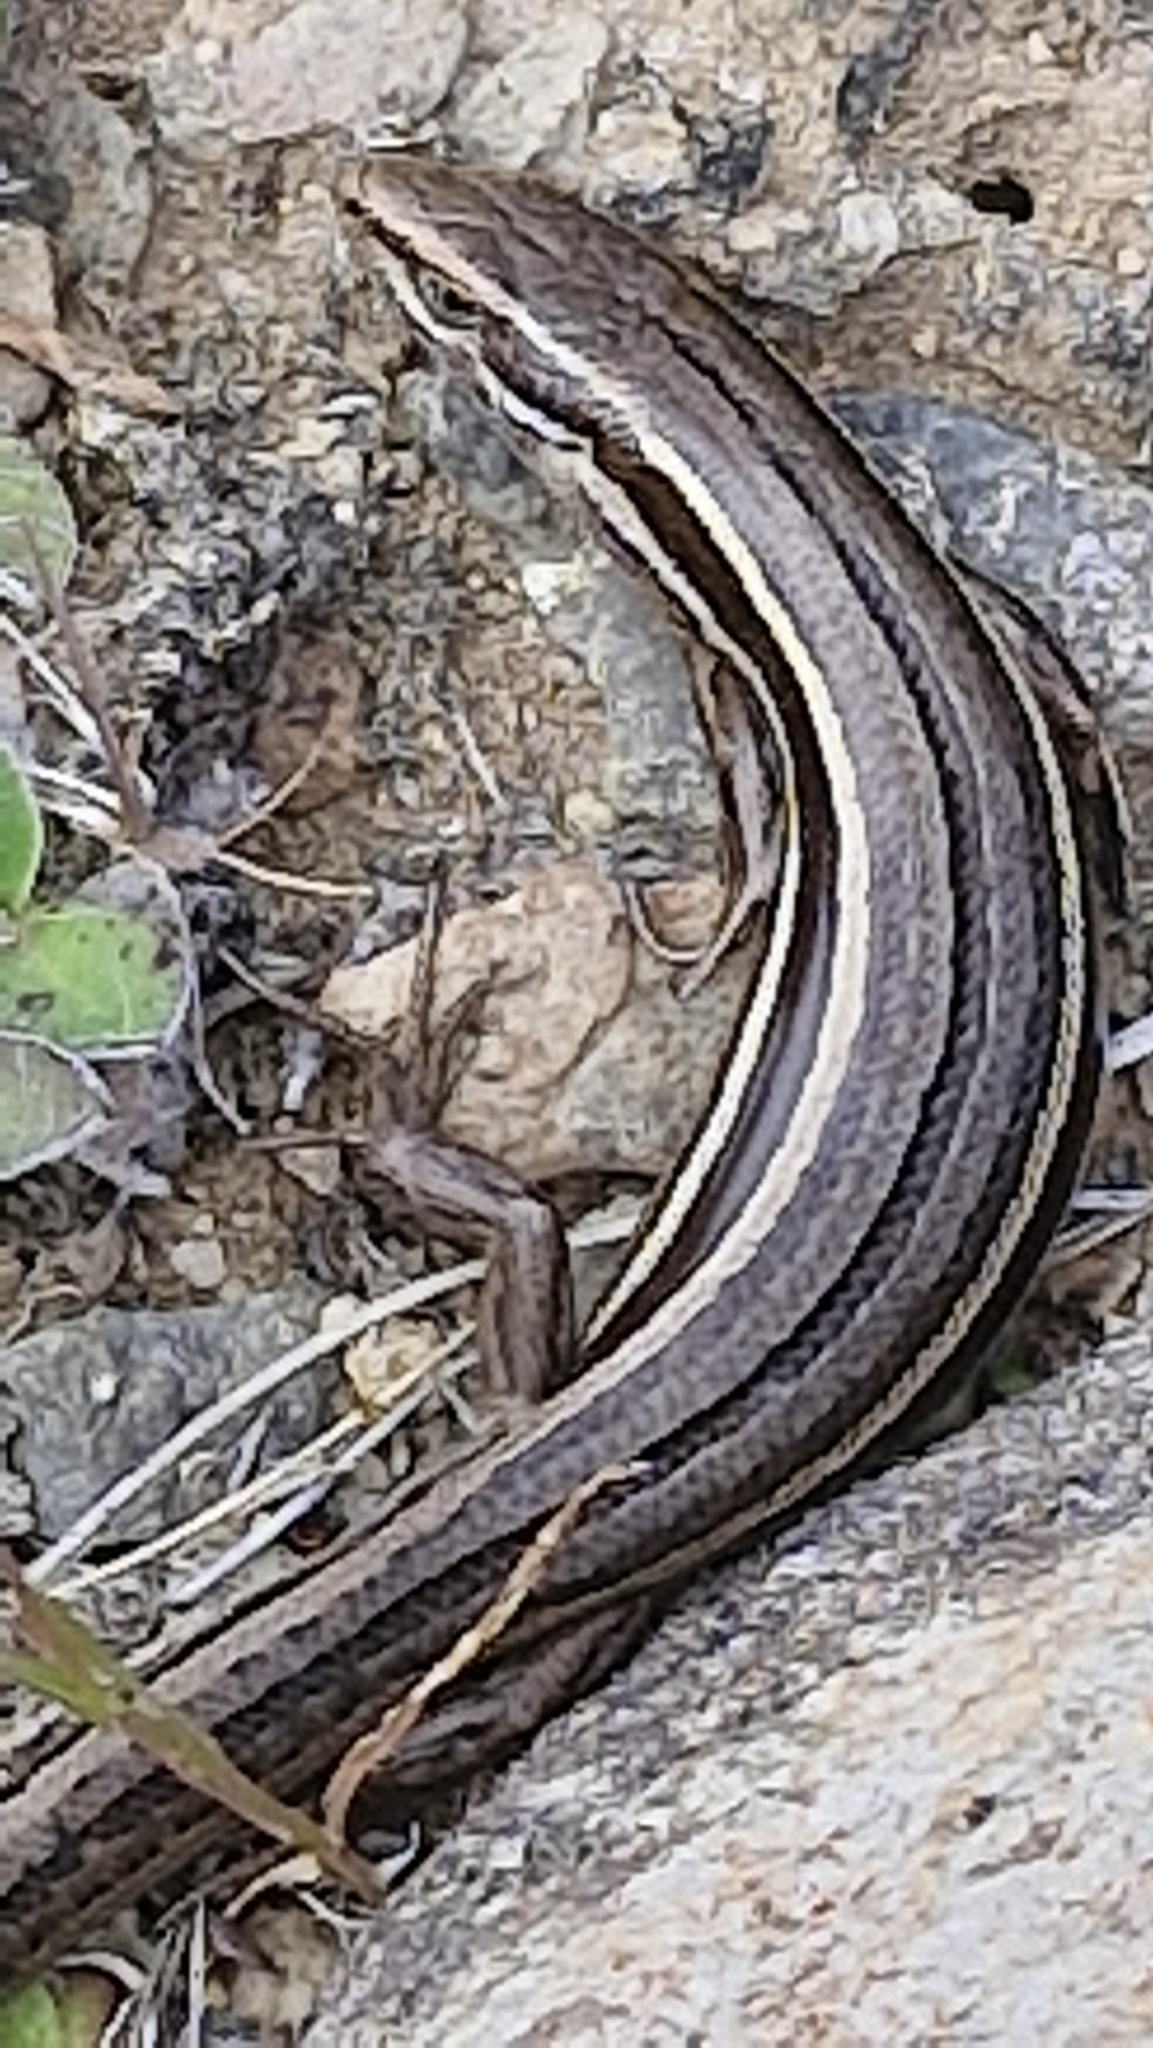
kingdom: Animalia
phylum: Chordata
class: Squamata
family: Scincidae
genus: Oligosoma
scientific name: Oligosoma maccanni
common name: Mccann’s skink
